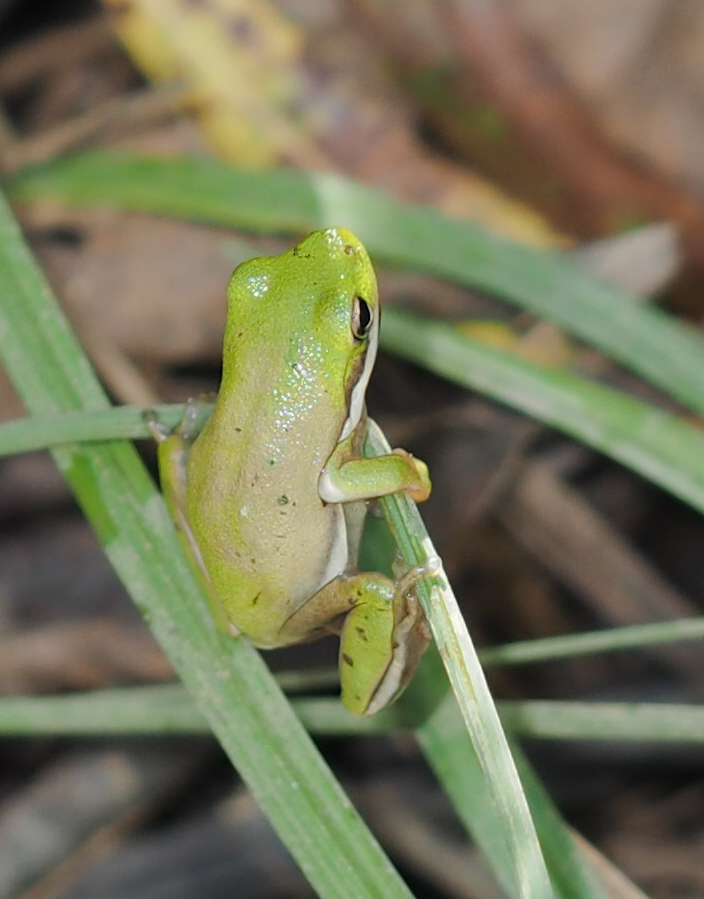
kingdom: Animalia
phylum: Chordata
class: Amphibia
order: Anura
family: Hylidae
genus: Dryophytes
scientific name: Dryophytes cinereus
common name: Green treefrog
